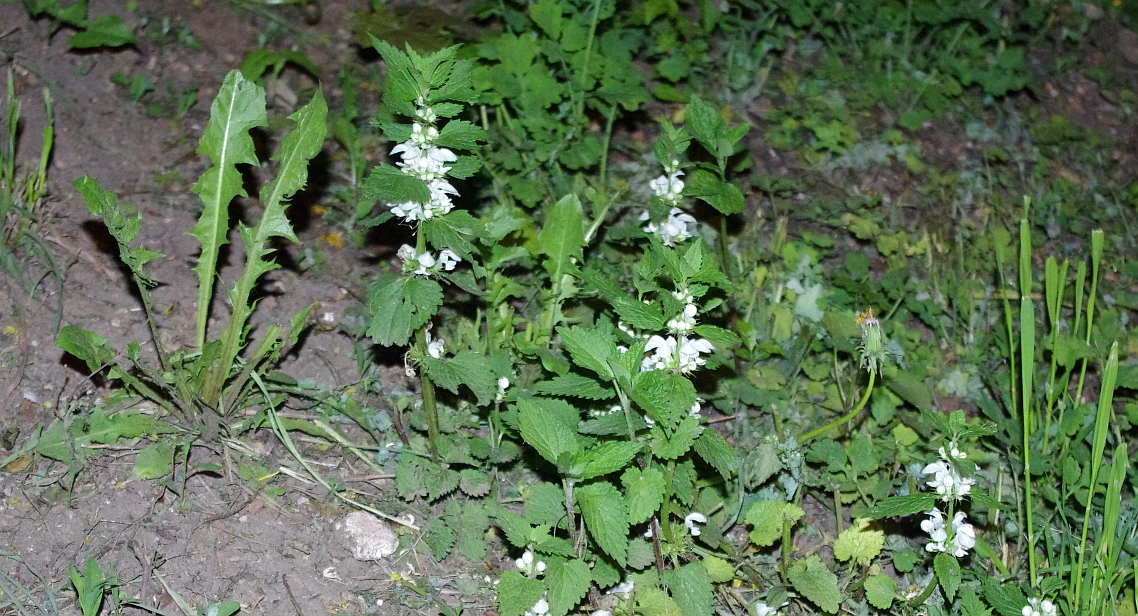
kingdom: Plantae
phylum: Tracheophyta
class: Magnoliopsida
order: Lamiales
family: Lamiaceae
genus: Lamium
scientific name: Lamium album
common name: White dead-nettle
